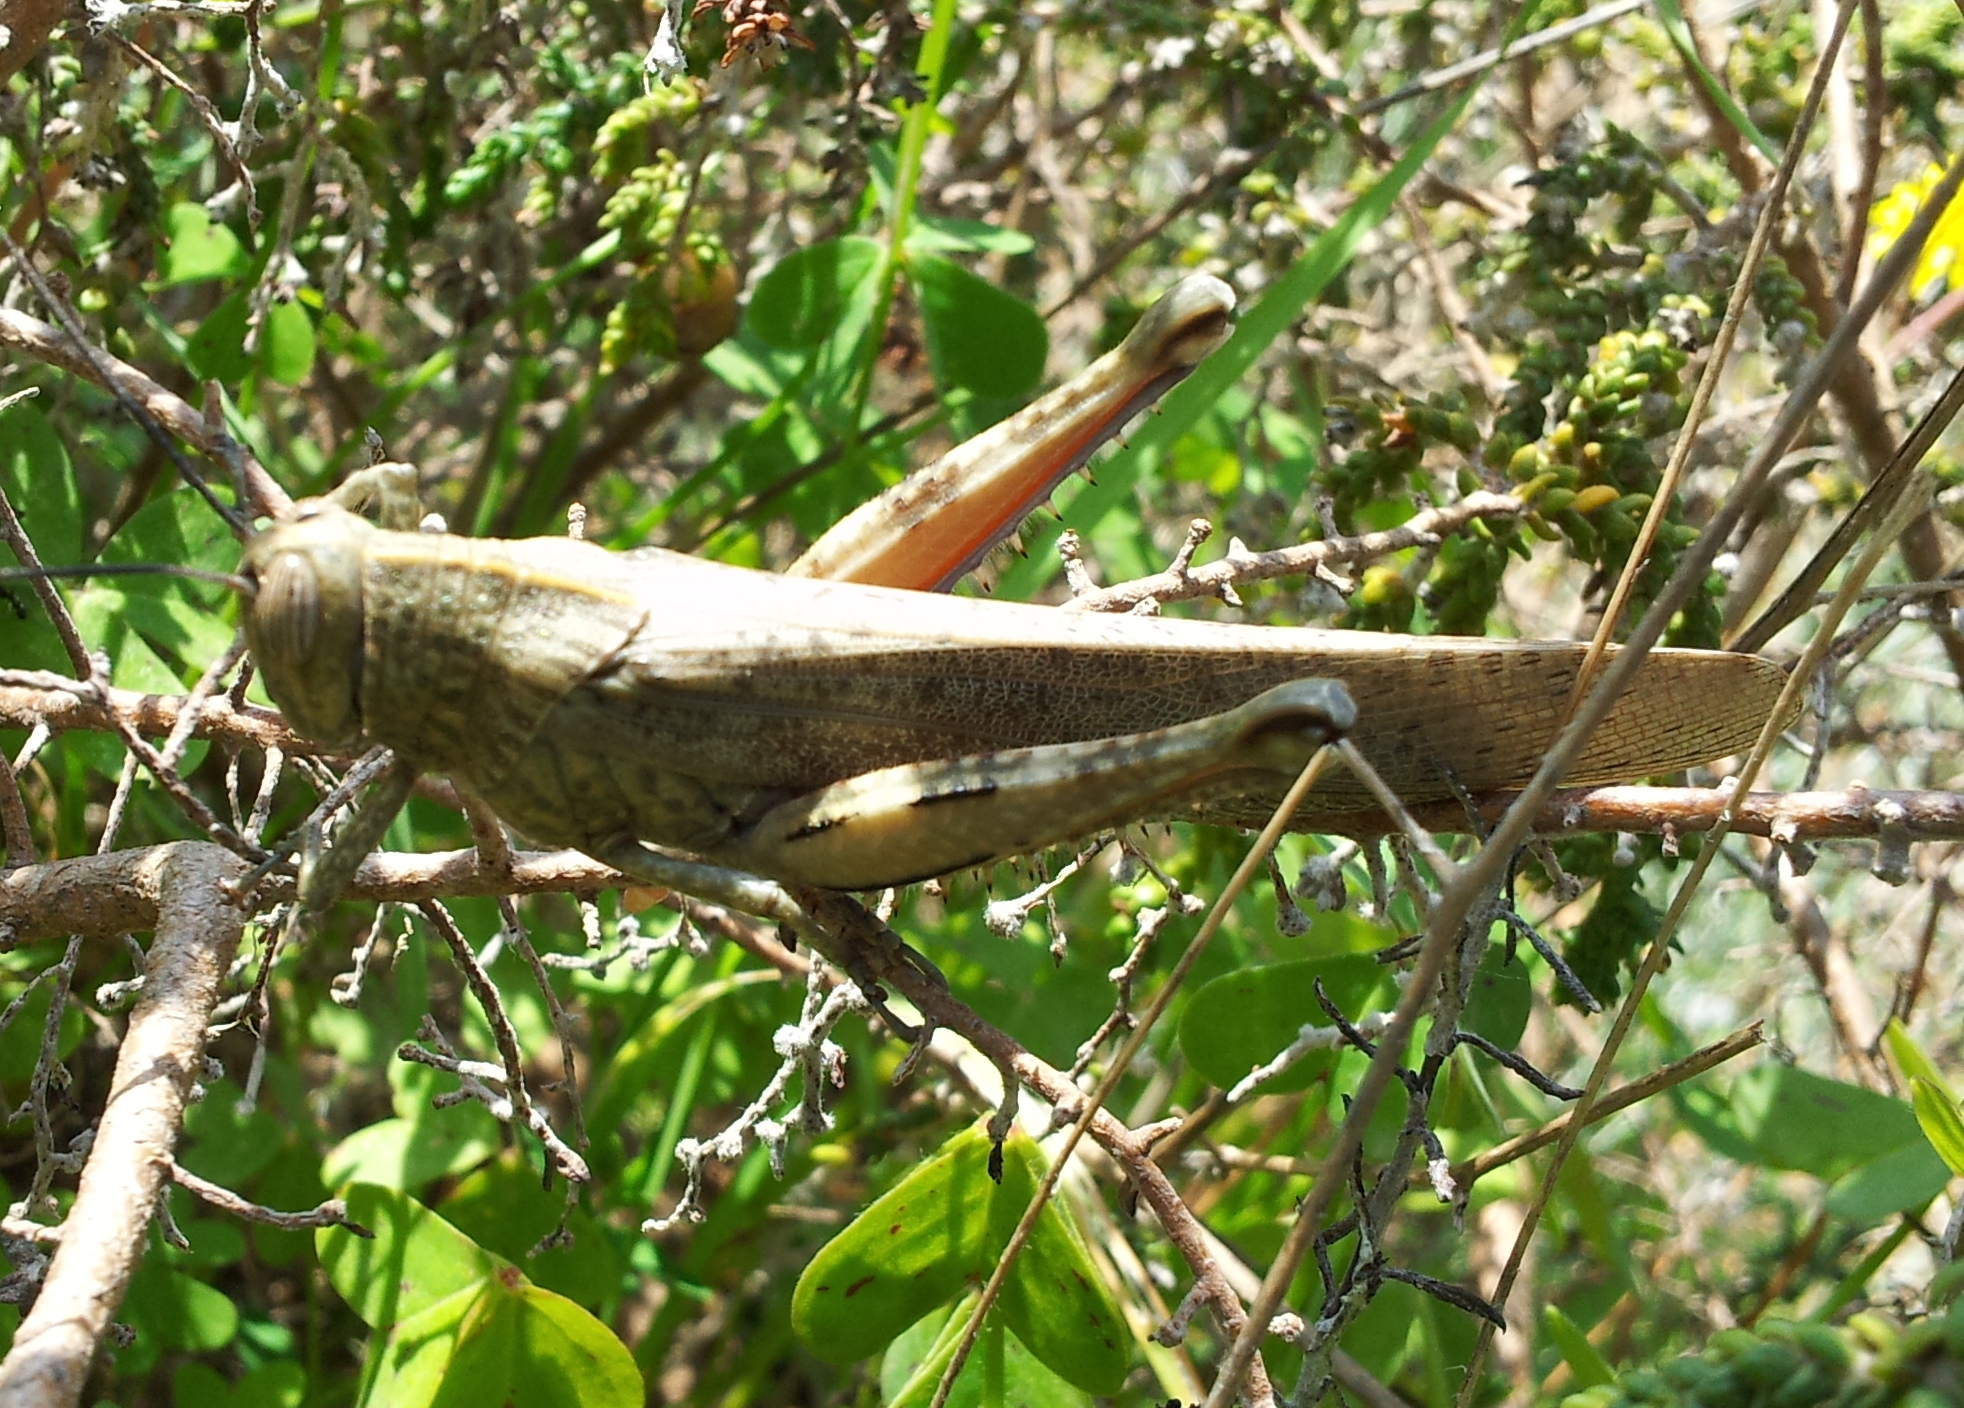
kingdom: Animalia
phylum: Arthropoda
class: Insecta
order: Orthoptera
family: Acrididae
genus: Anacridium
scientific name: Anacridium aegyptium
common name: Egyptian grasshopper
